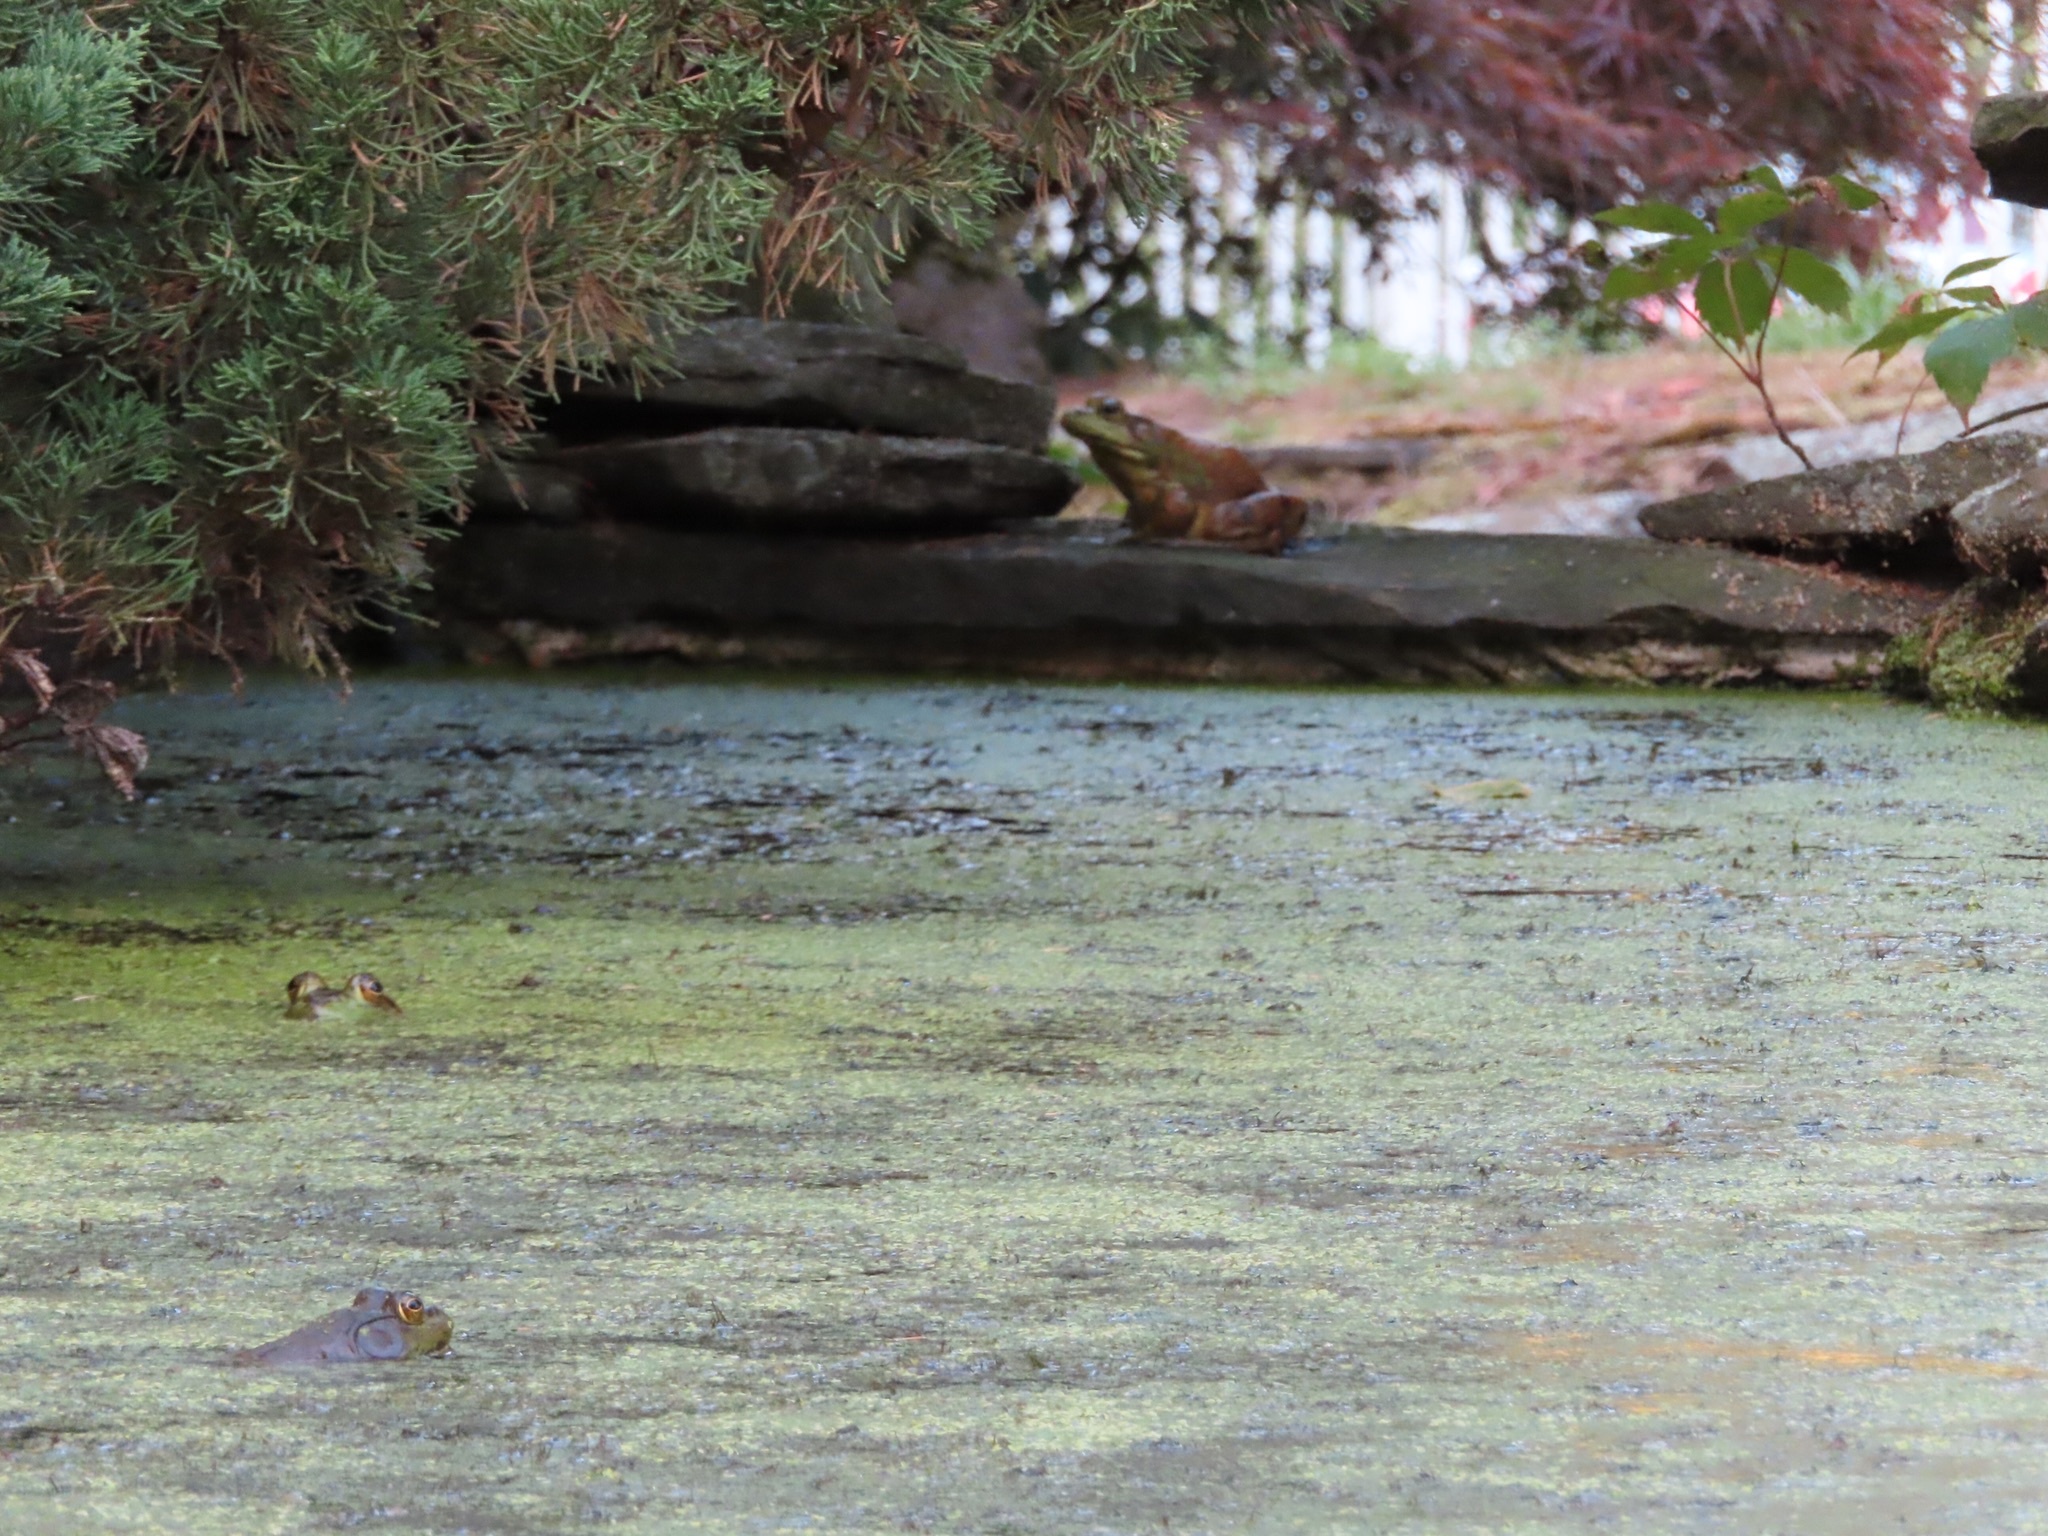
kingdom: Animalia
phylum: Chordata
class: Amphibia
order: Anura
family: Ranidae
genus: Lithobates
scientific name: Lithobates catesbeianus
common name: American bullfrog
